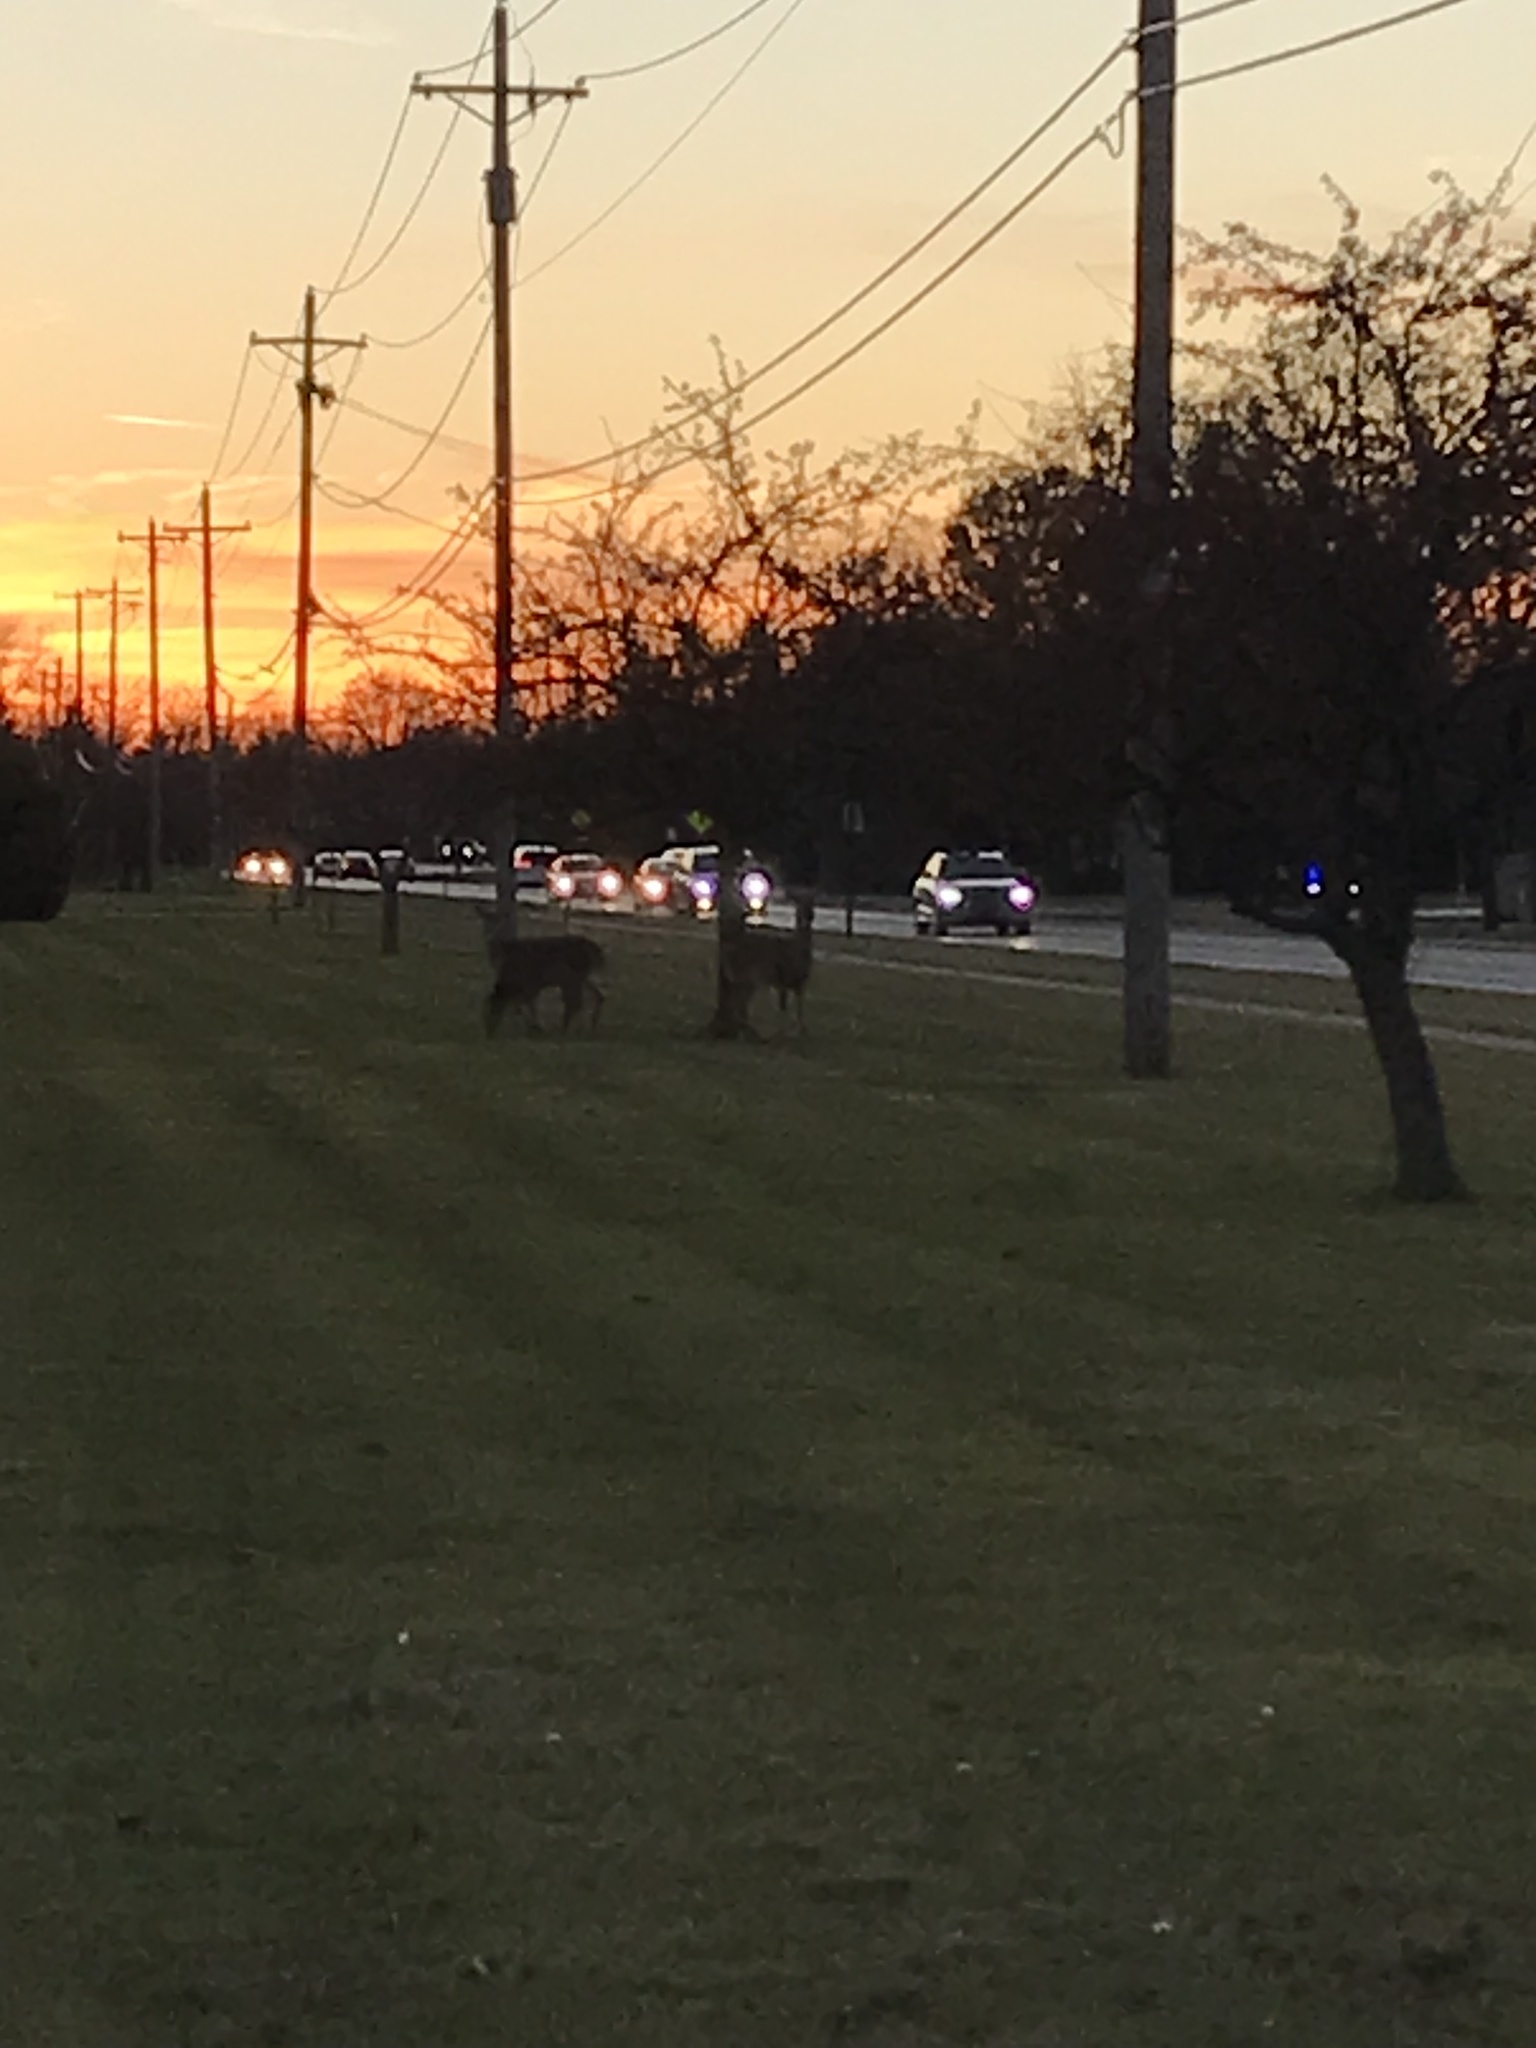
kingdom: Animalia
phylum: Chordata
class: Mammalia
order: Artiodactyla
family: Cervidae
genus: Odocoileus
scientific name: Odocoileus virginianus
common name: White-tailed deer
